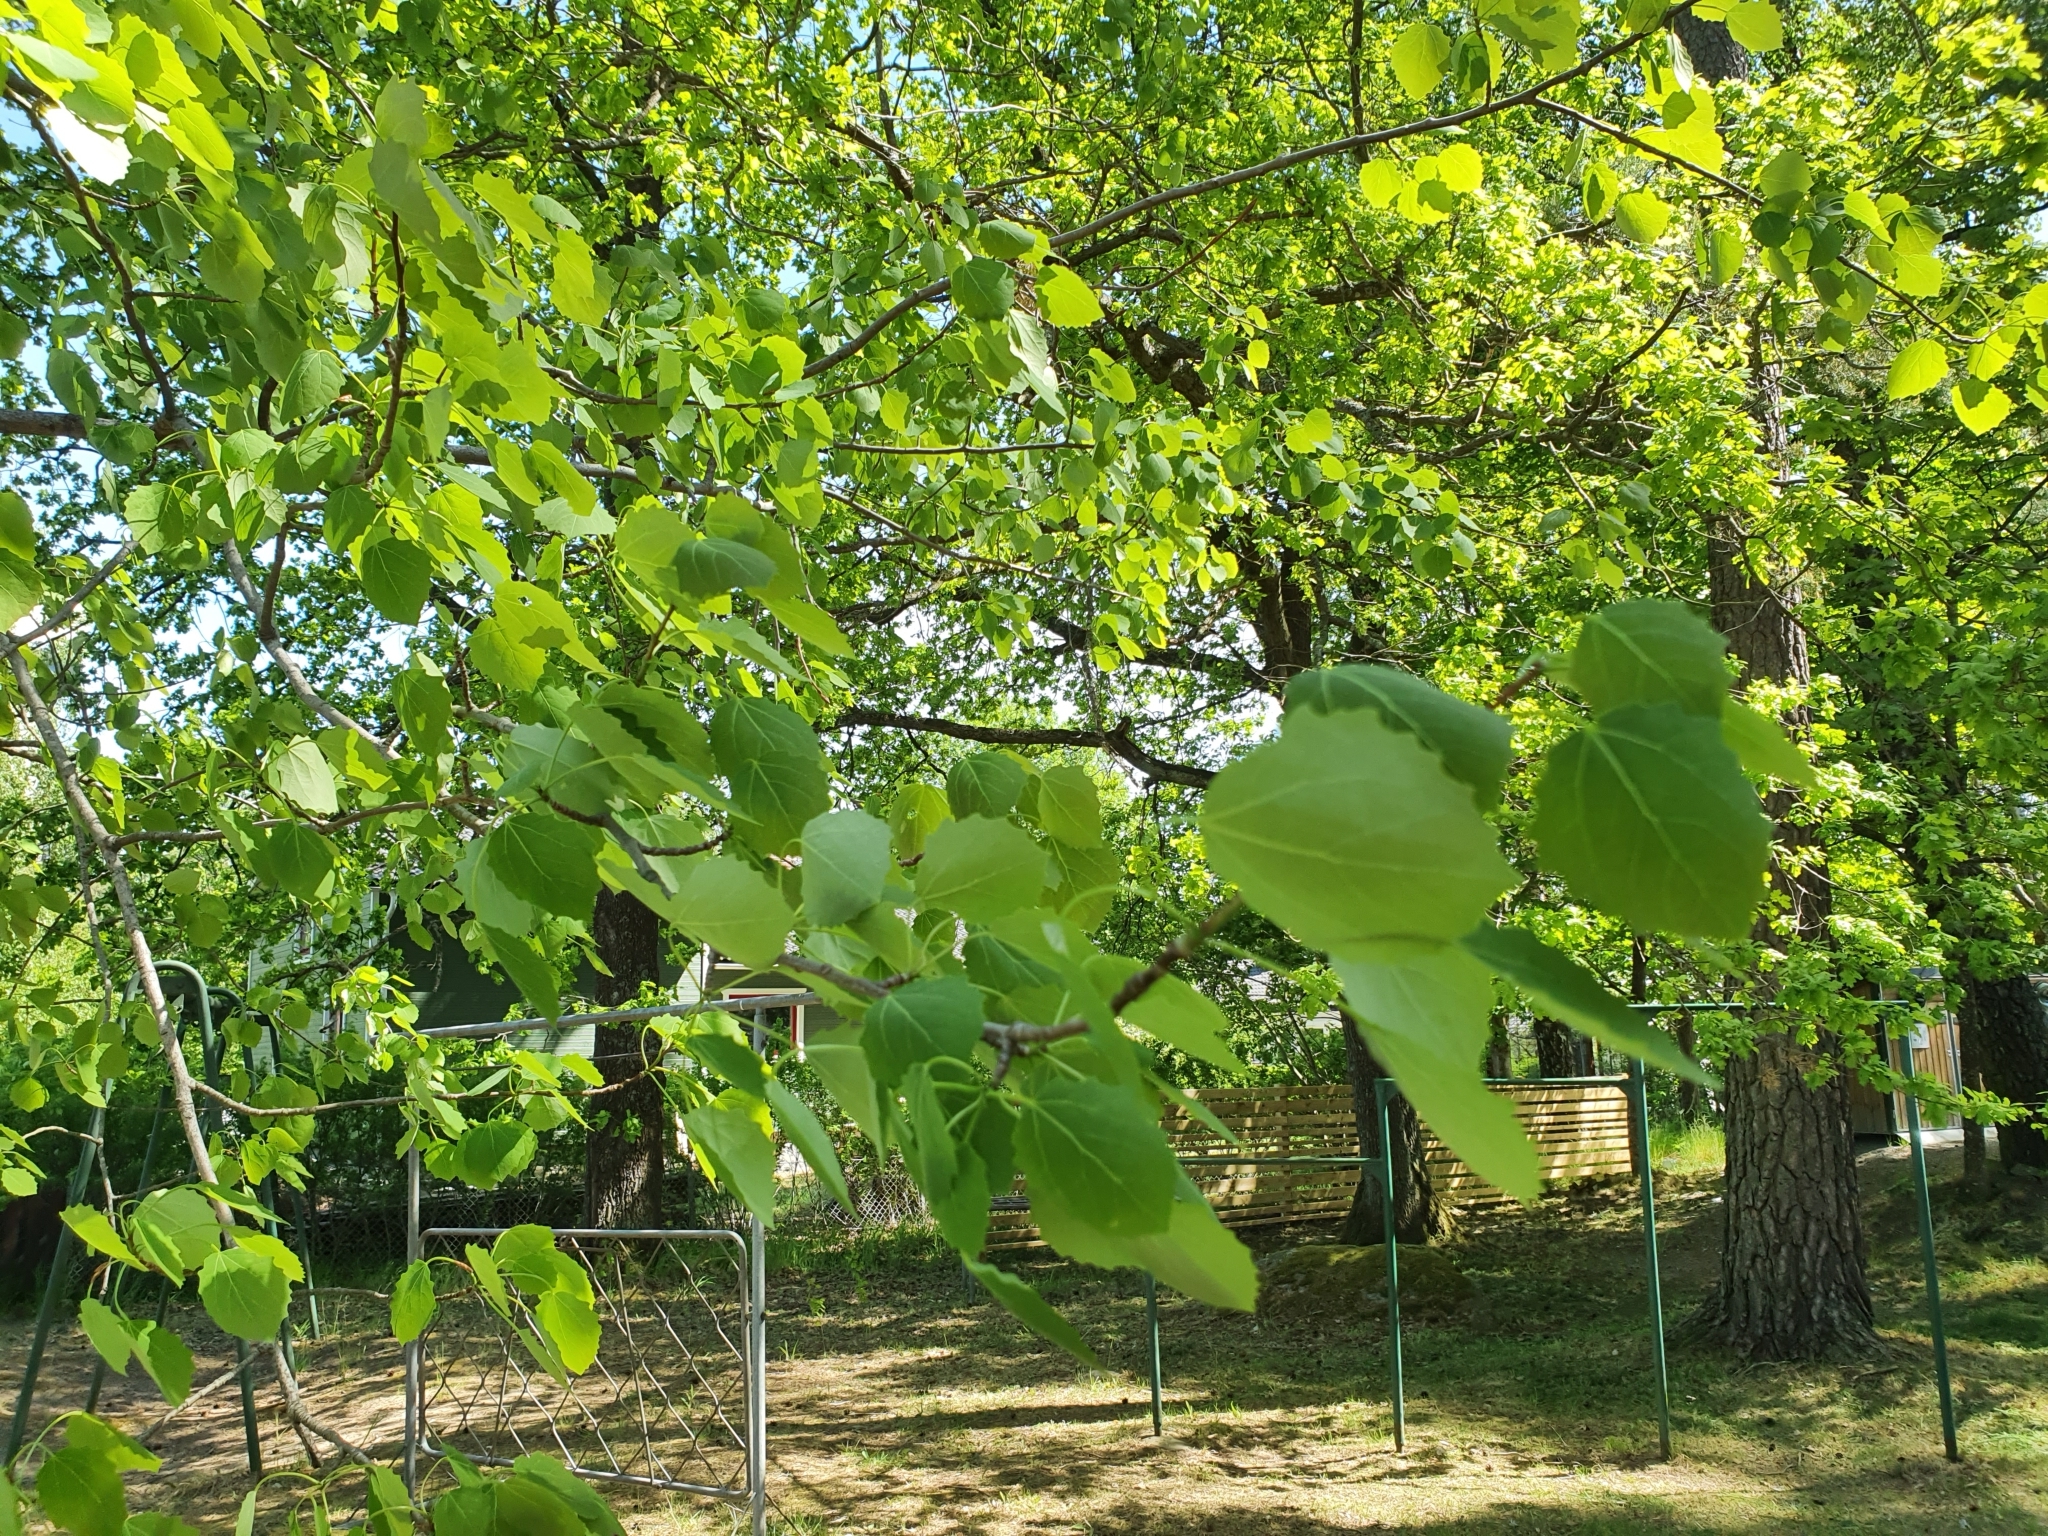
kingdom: Plantae
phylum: Tracheophyta
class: Magnoliopsida
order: Malpighiales
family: Salicaceae
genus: Populus
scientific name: Populus tremula
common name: European aspen
